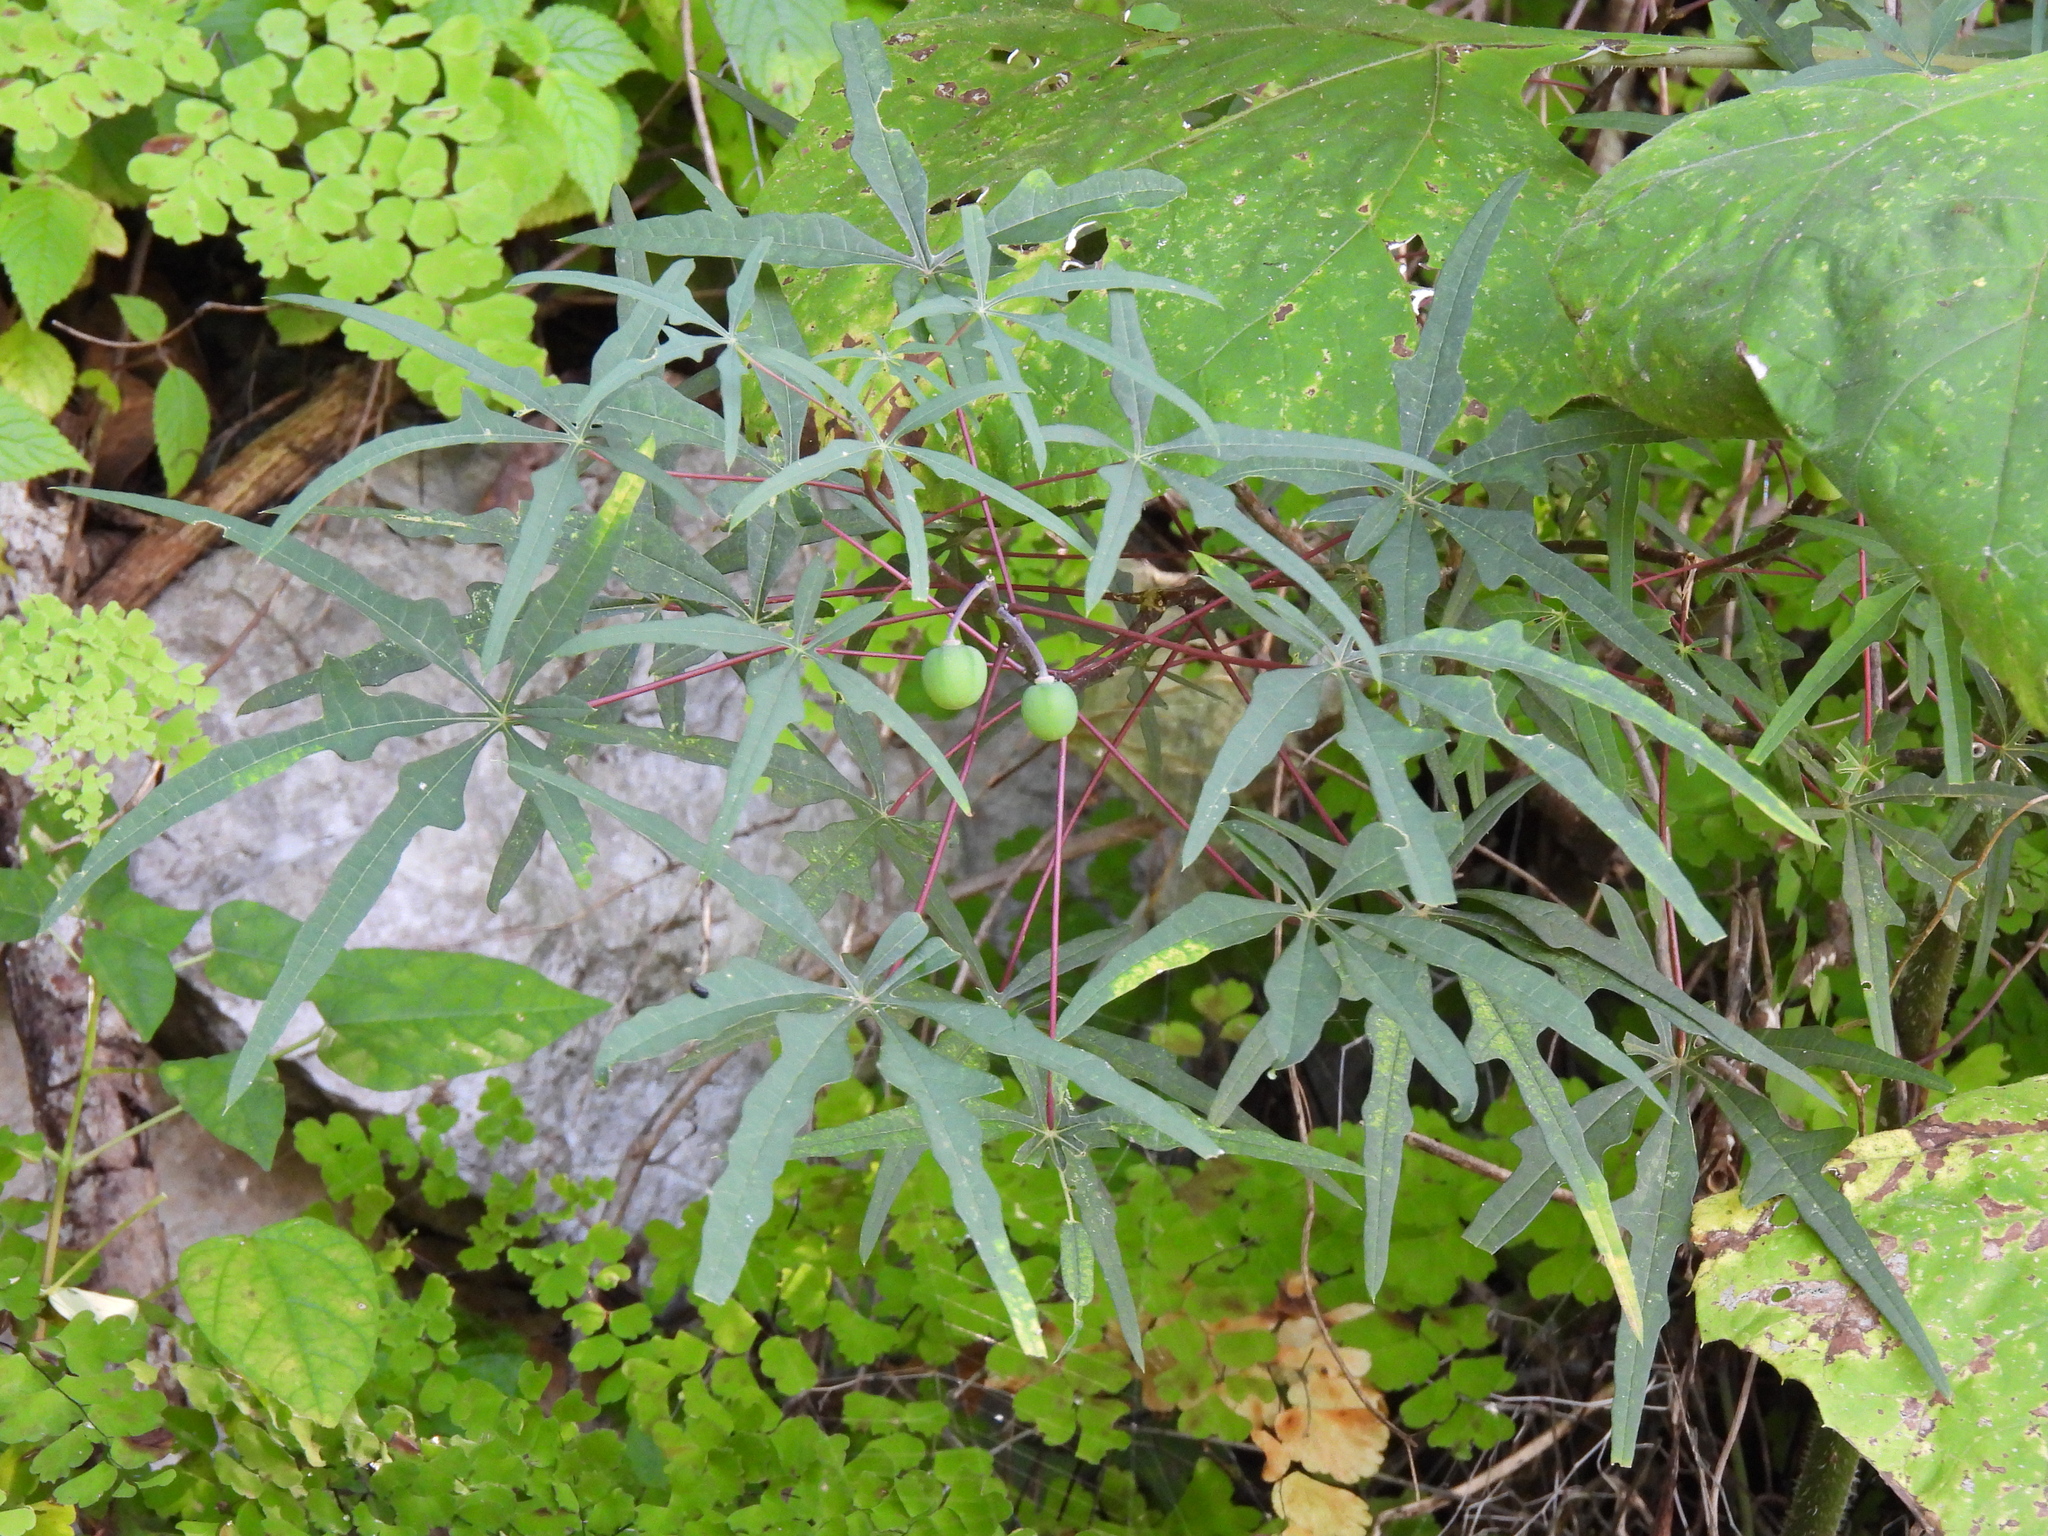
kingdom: Plantae
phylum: Tracheophyta
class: Magnoliopsida
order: Malpighiales
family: Euphorbiaceae
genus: Manihot
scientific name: Manihot rhomboidea
